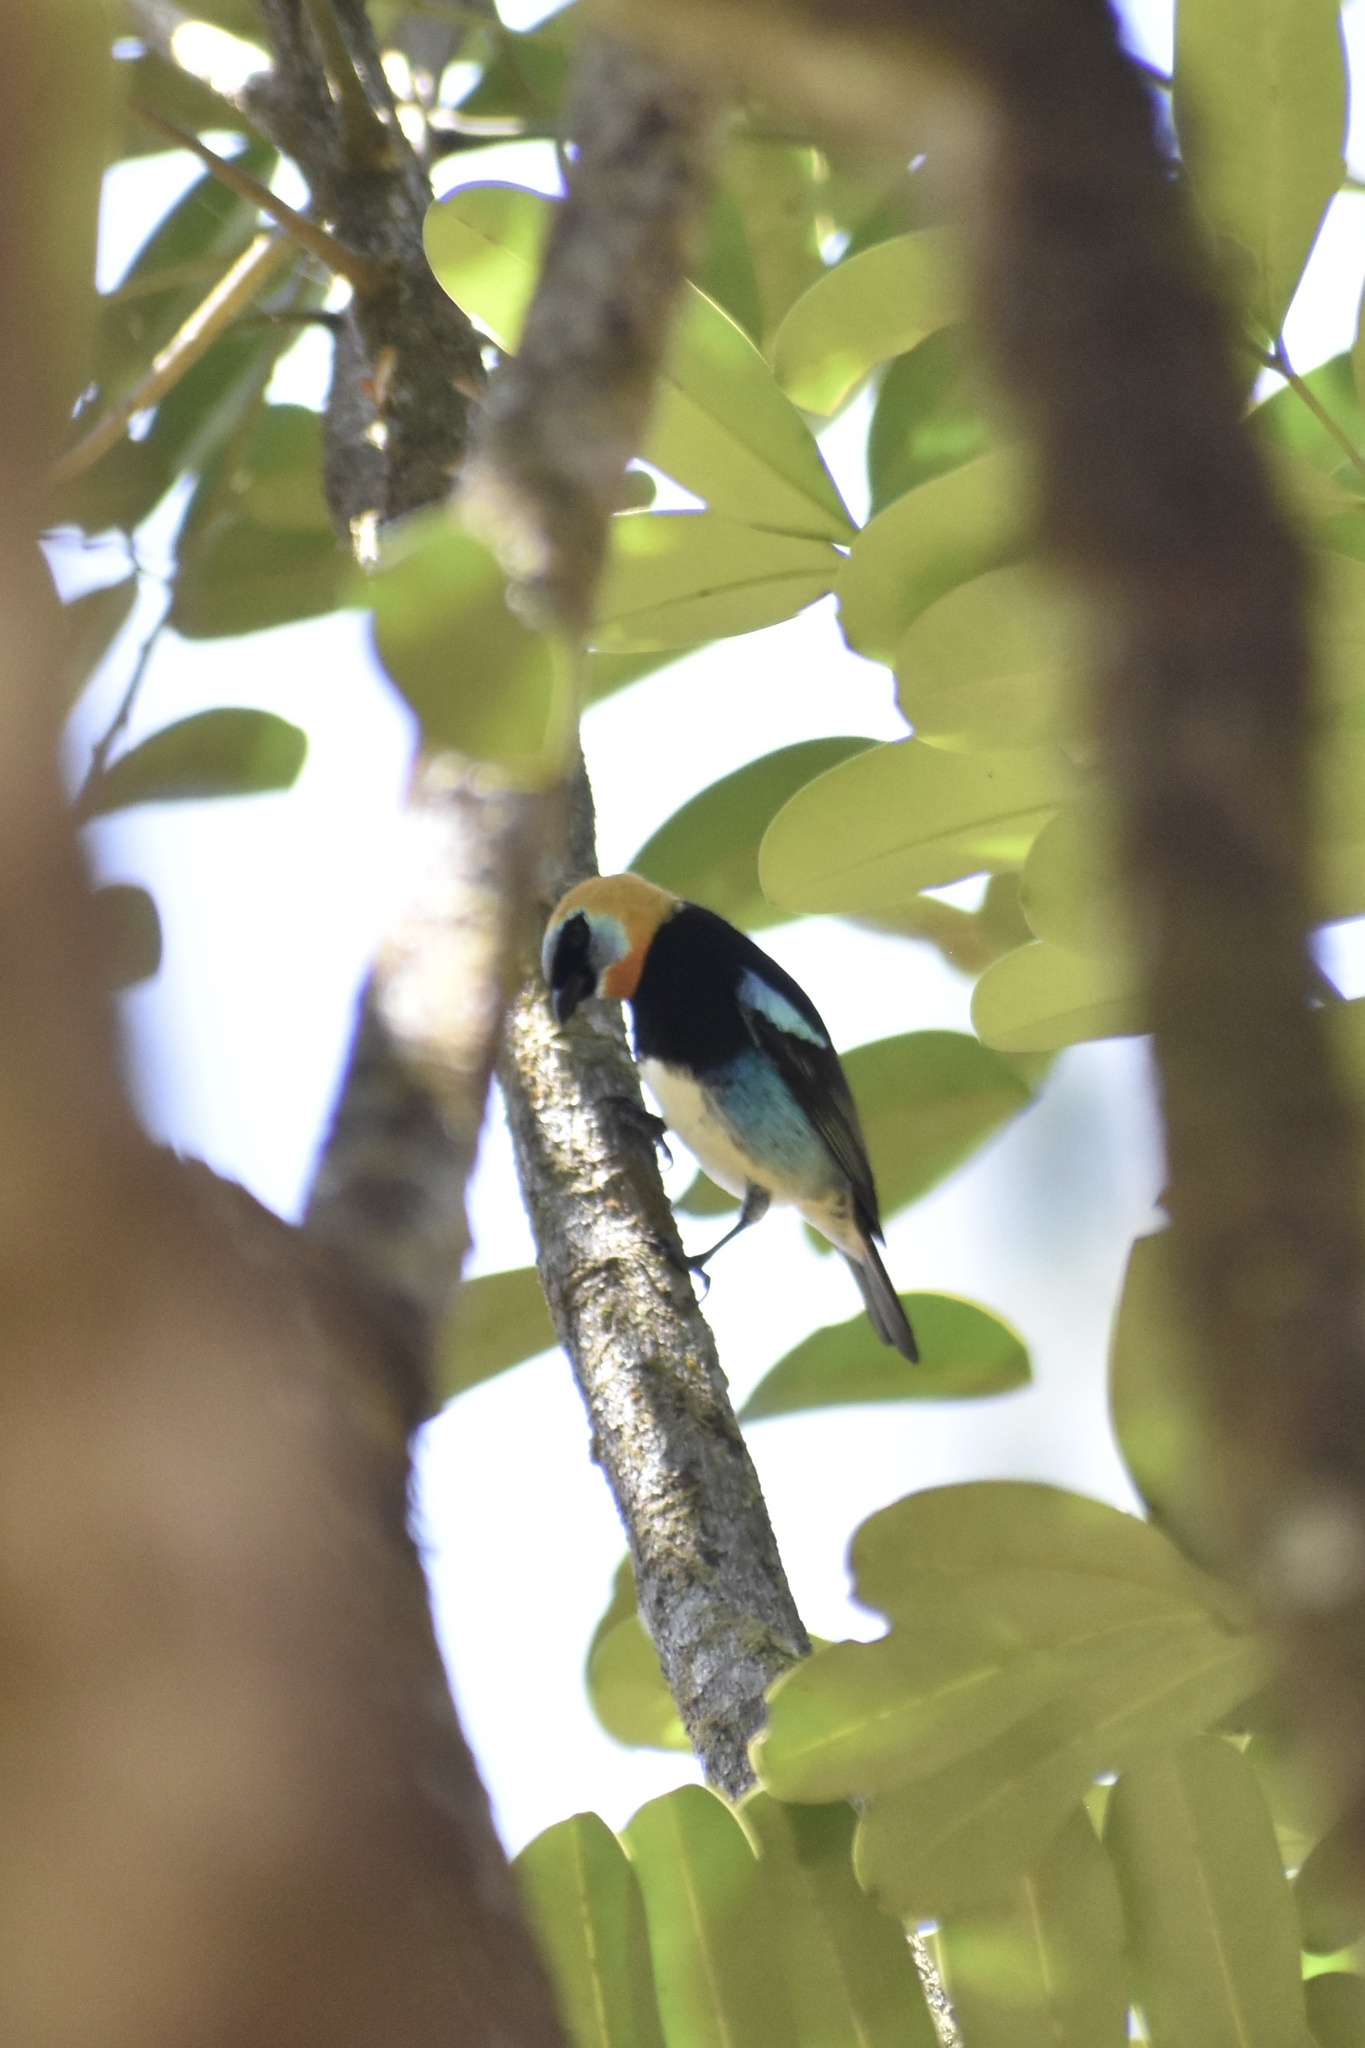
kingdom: Animalia
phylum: Chordata
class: Aves
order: Passeriformes
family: Thraupidae
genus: Stilpnia
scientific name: Stilpnia larvata
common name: Golden-hooded tanager
